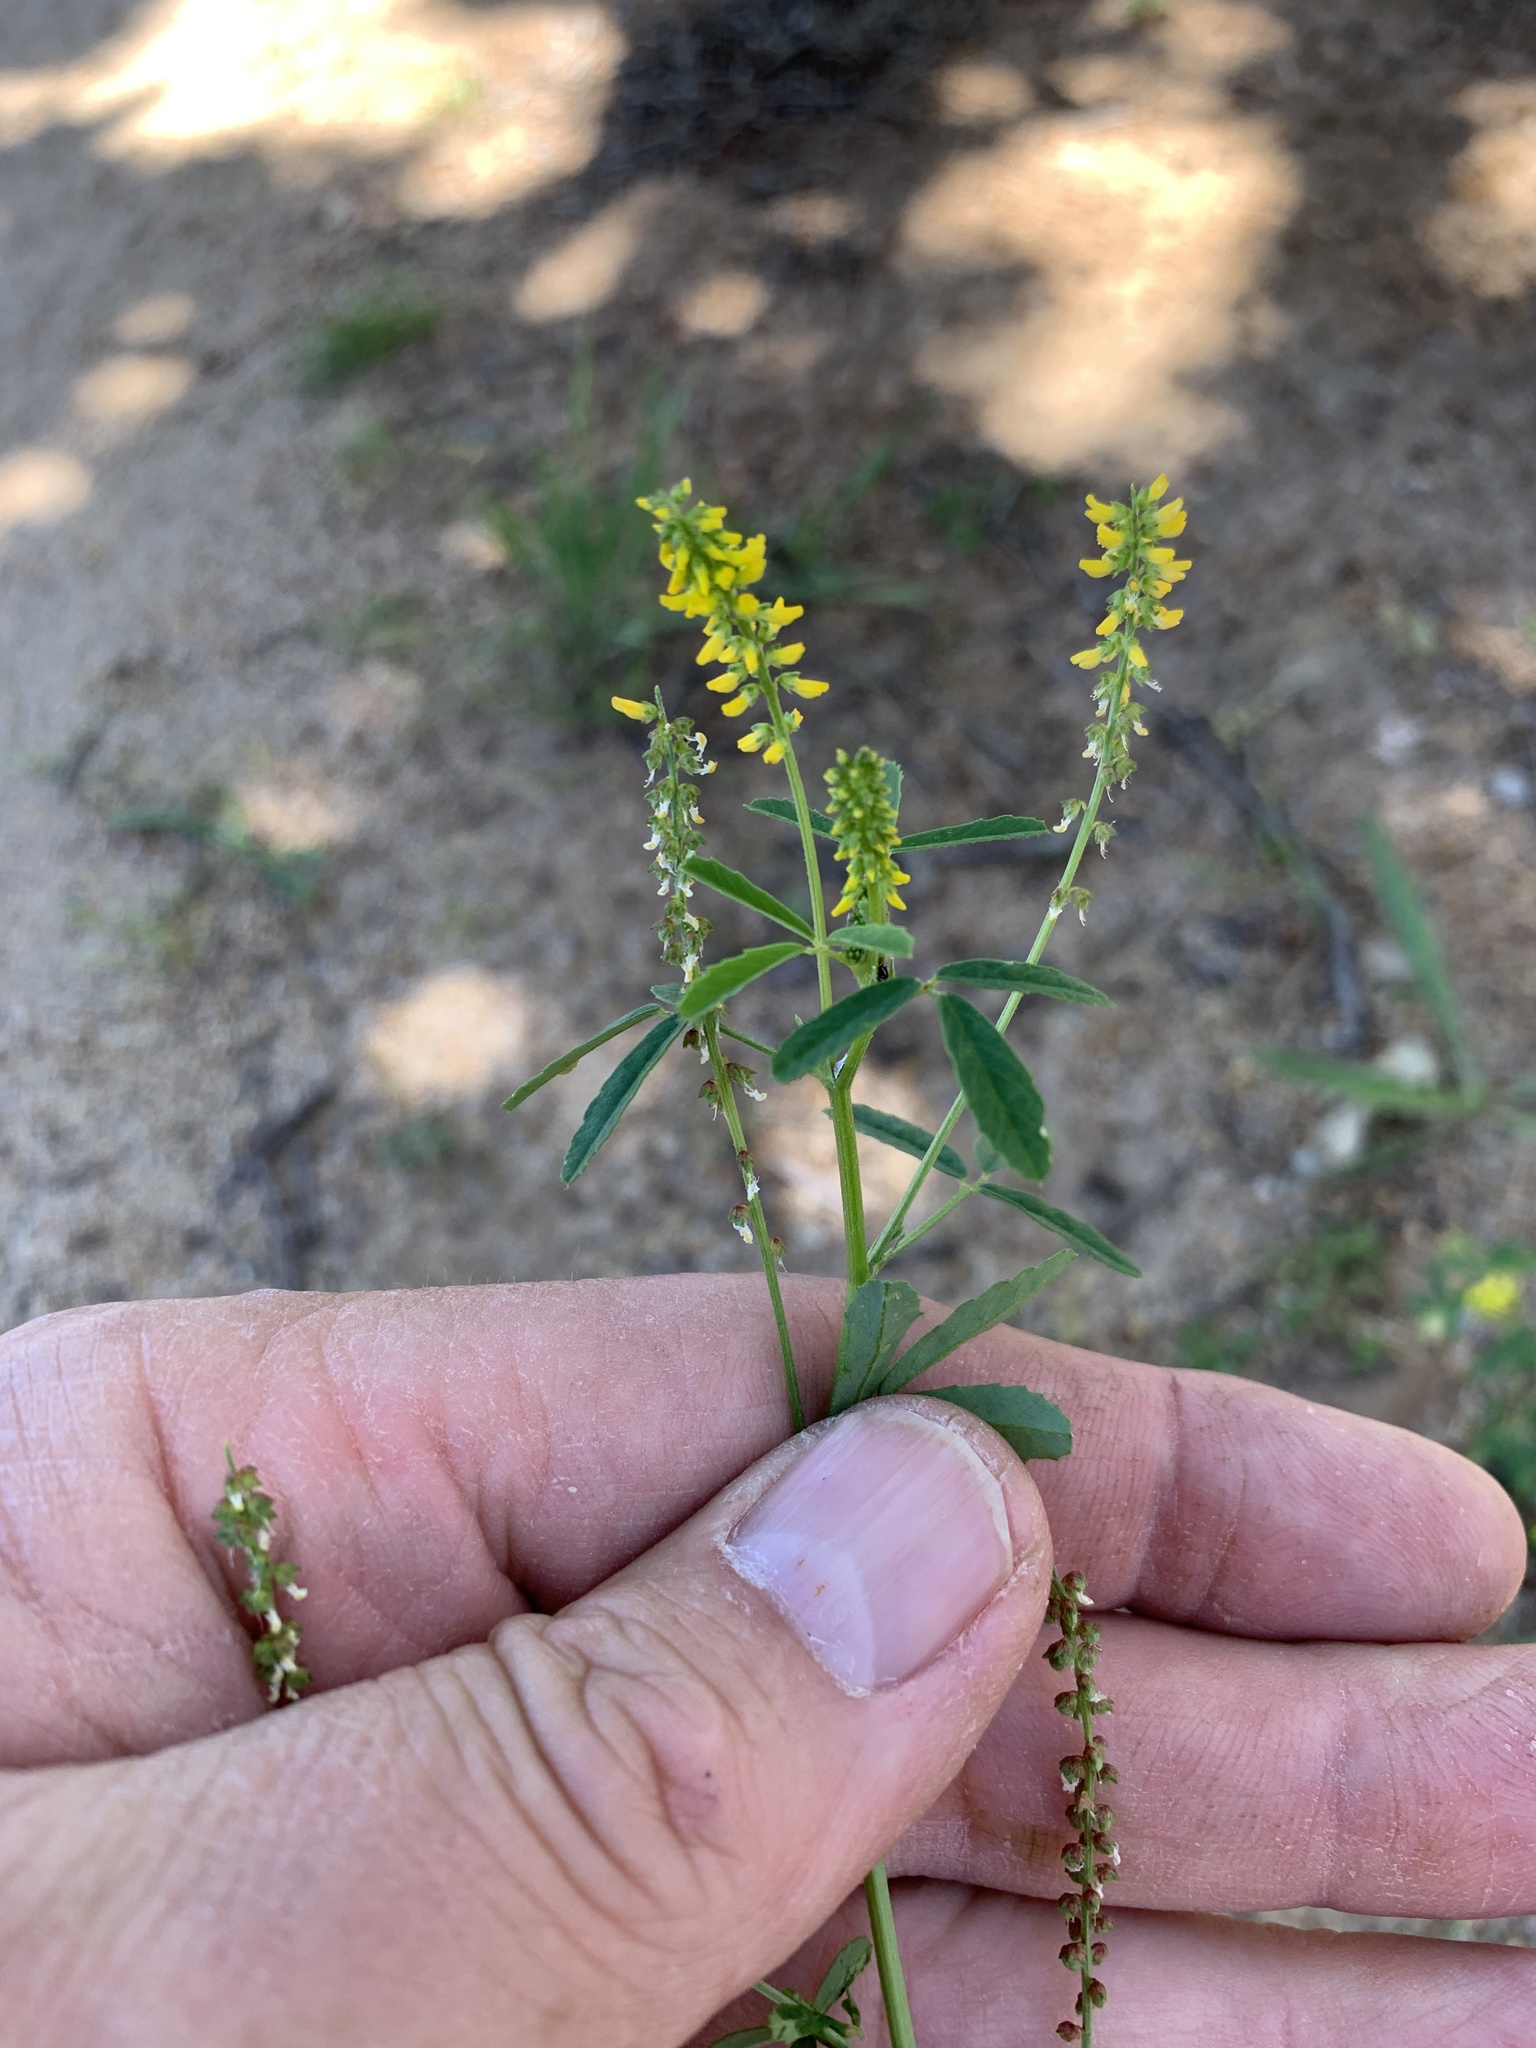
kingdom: Plantae
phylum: Tracheophyta
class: Magnoliopsida
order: Fabales
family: Fabaceae
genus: Melilotus
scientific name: Melilotus indicus
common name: Small melilot
